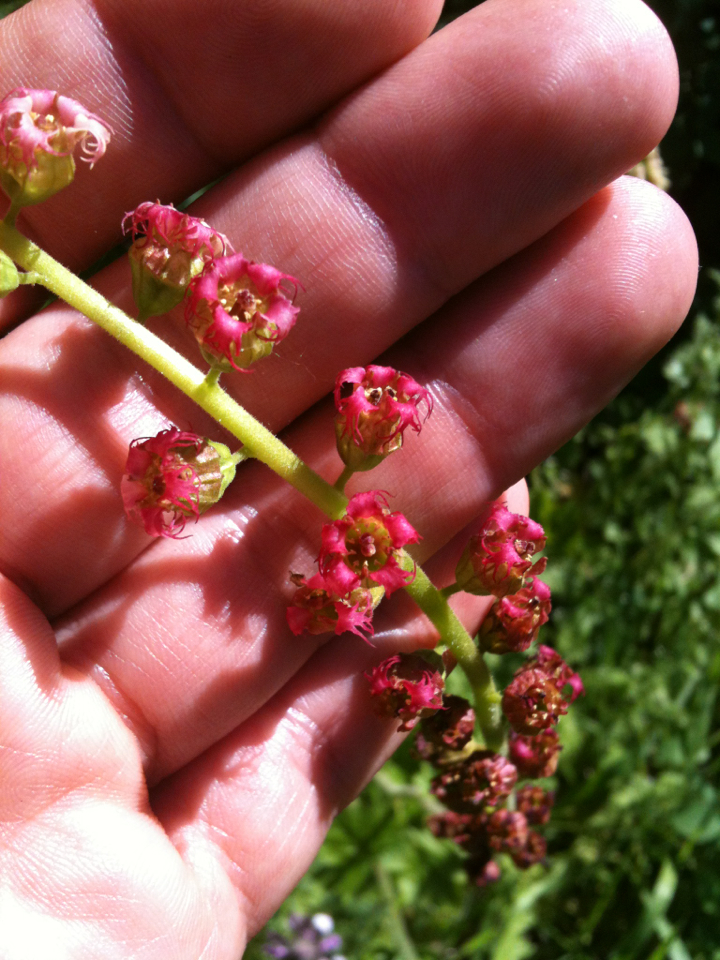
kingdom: Plantae
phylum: Tracheophyta
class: Magnoliopsida
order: Saxifragales
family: Saxifragaceae
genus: Tellima
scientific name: Tellima grandiflora
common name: Fringecups
